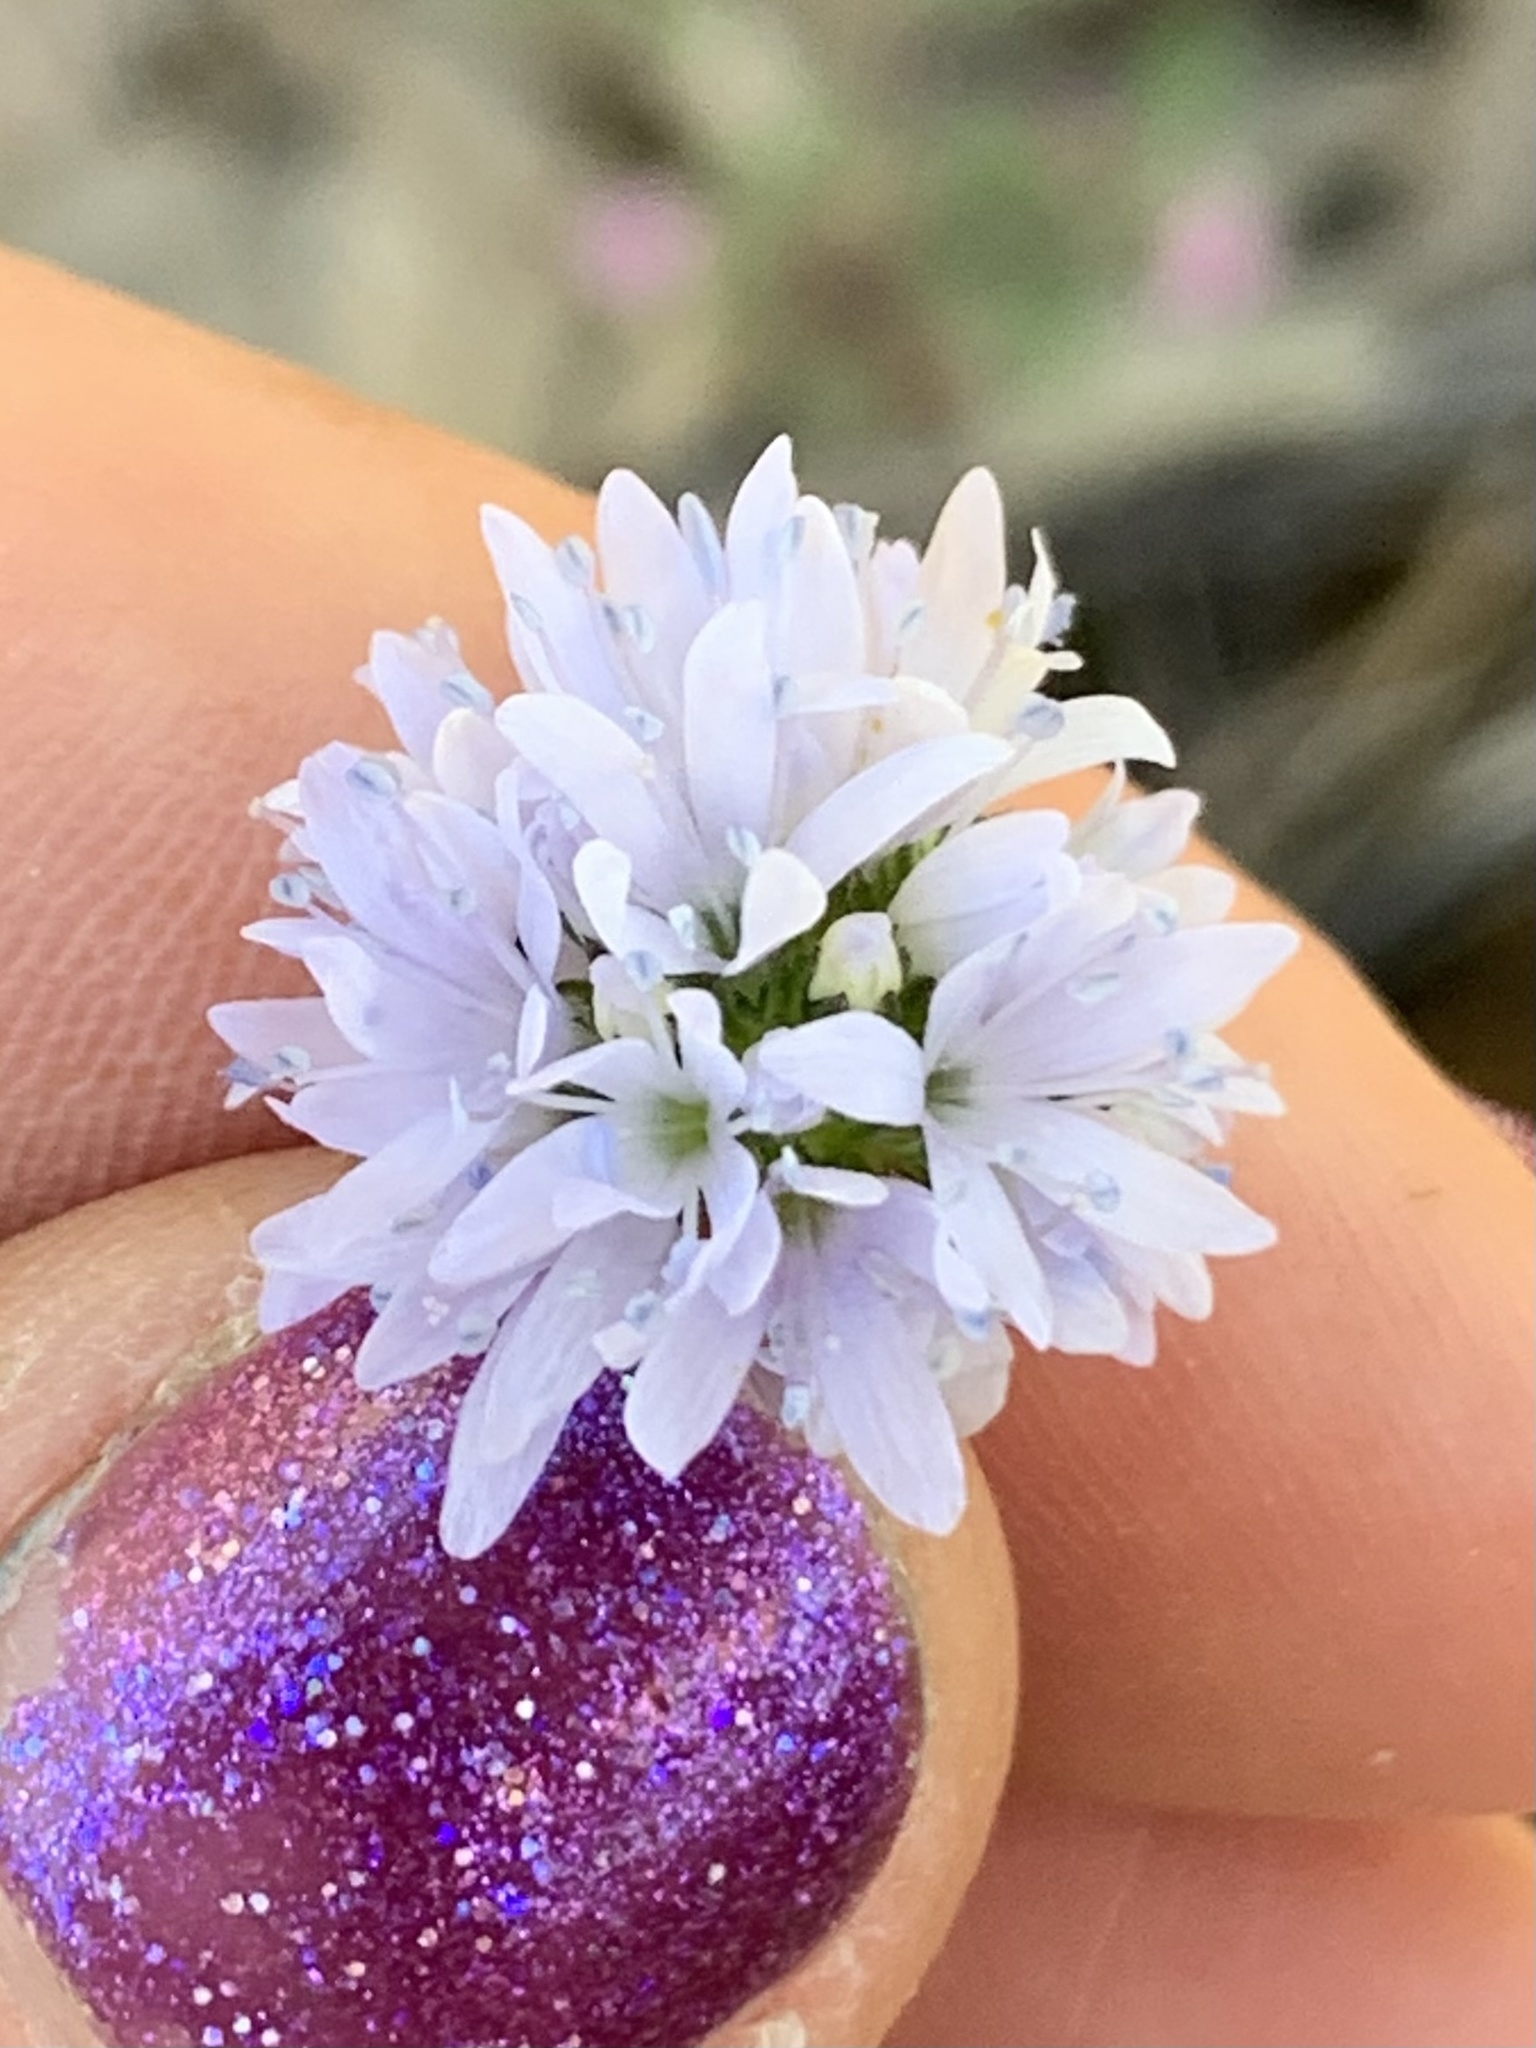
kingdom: Plantae
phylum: Tracheophyta
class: Magnoliopsida
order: Ericales
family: Polemoniaceae
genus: Gilia
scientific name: Gilia capitata
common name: Bluehead gilia
